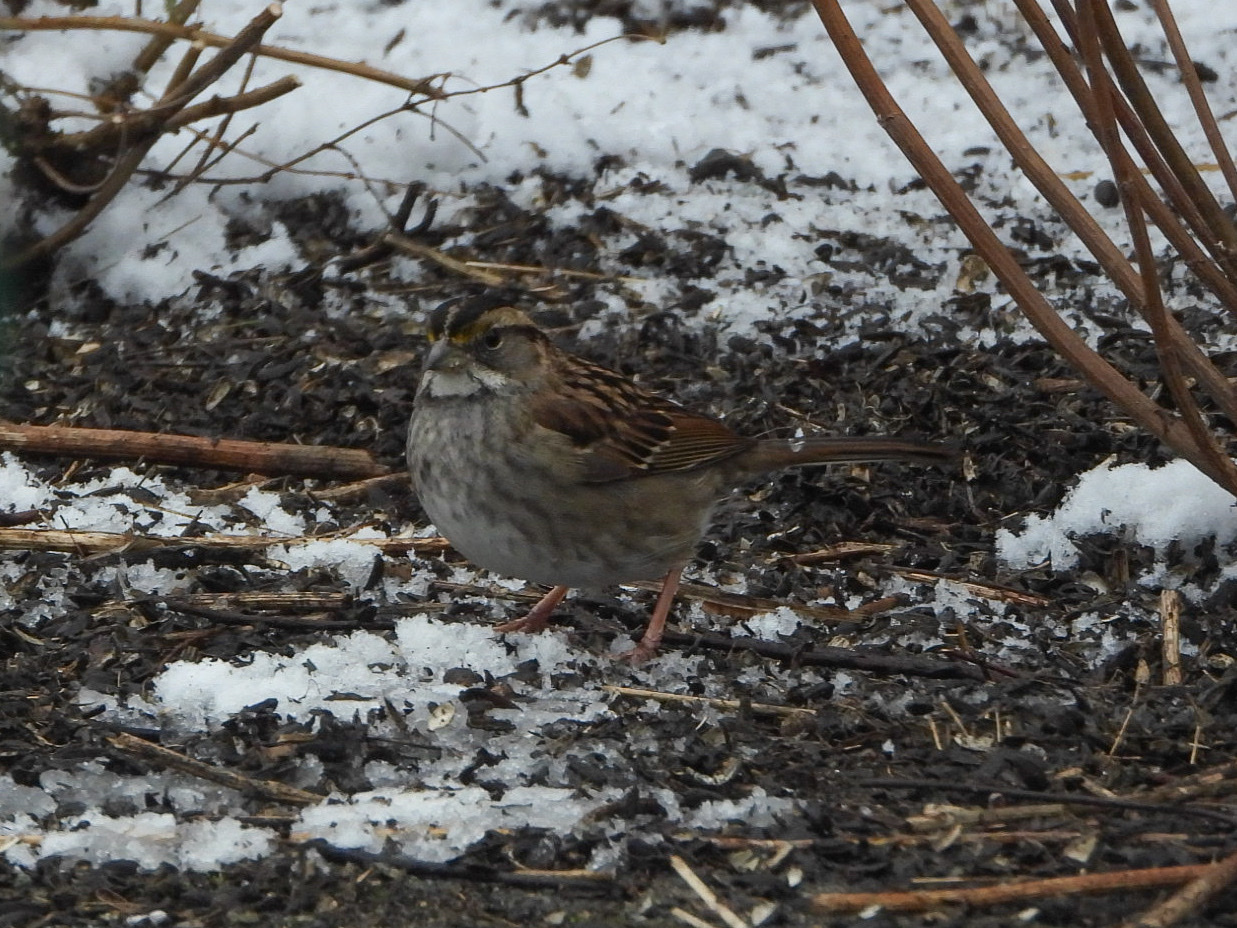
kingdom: Animalia
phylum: Chordata
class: Aves
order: Passeriformes
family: Passerellidae
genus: Zonotrichia
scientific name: Zonotrichia albicollis
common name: White-throated sparrow
